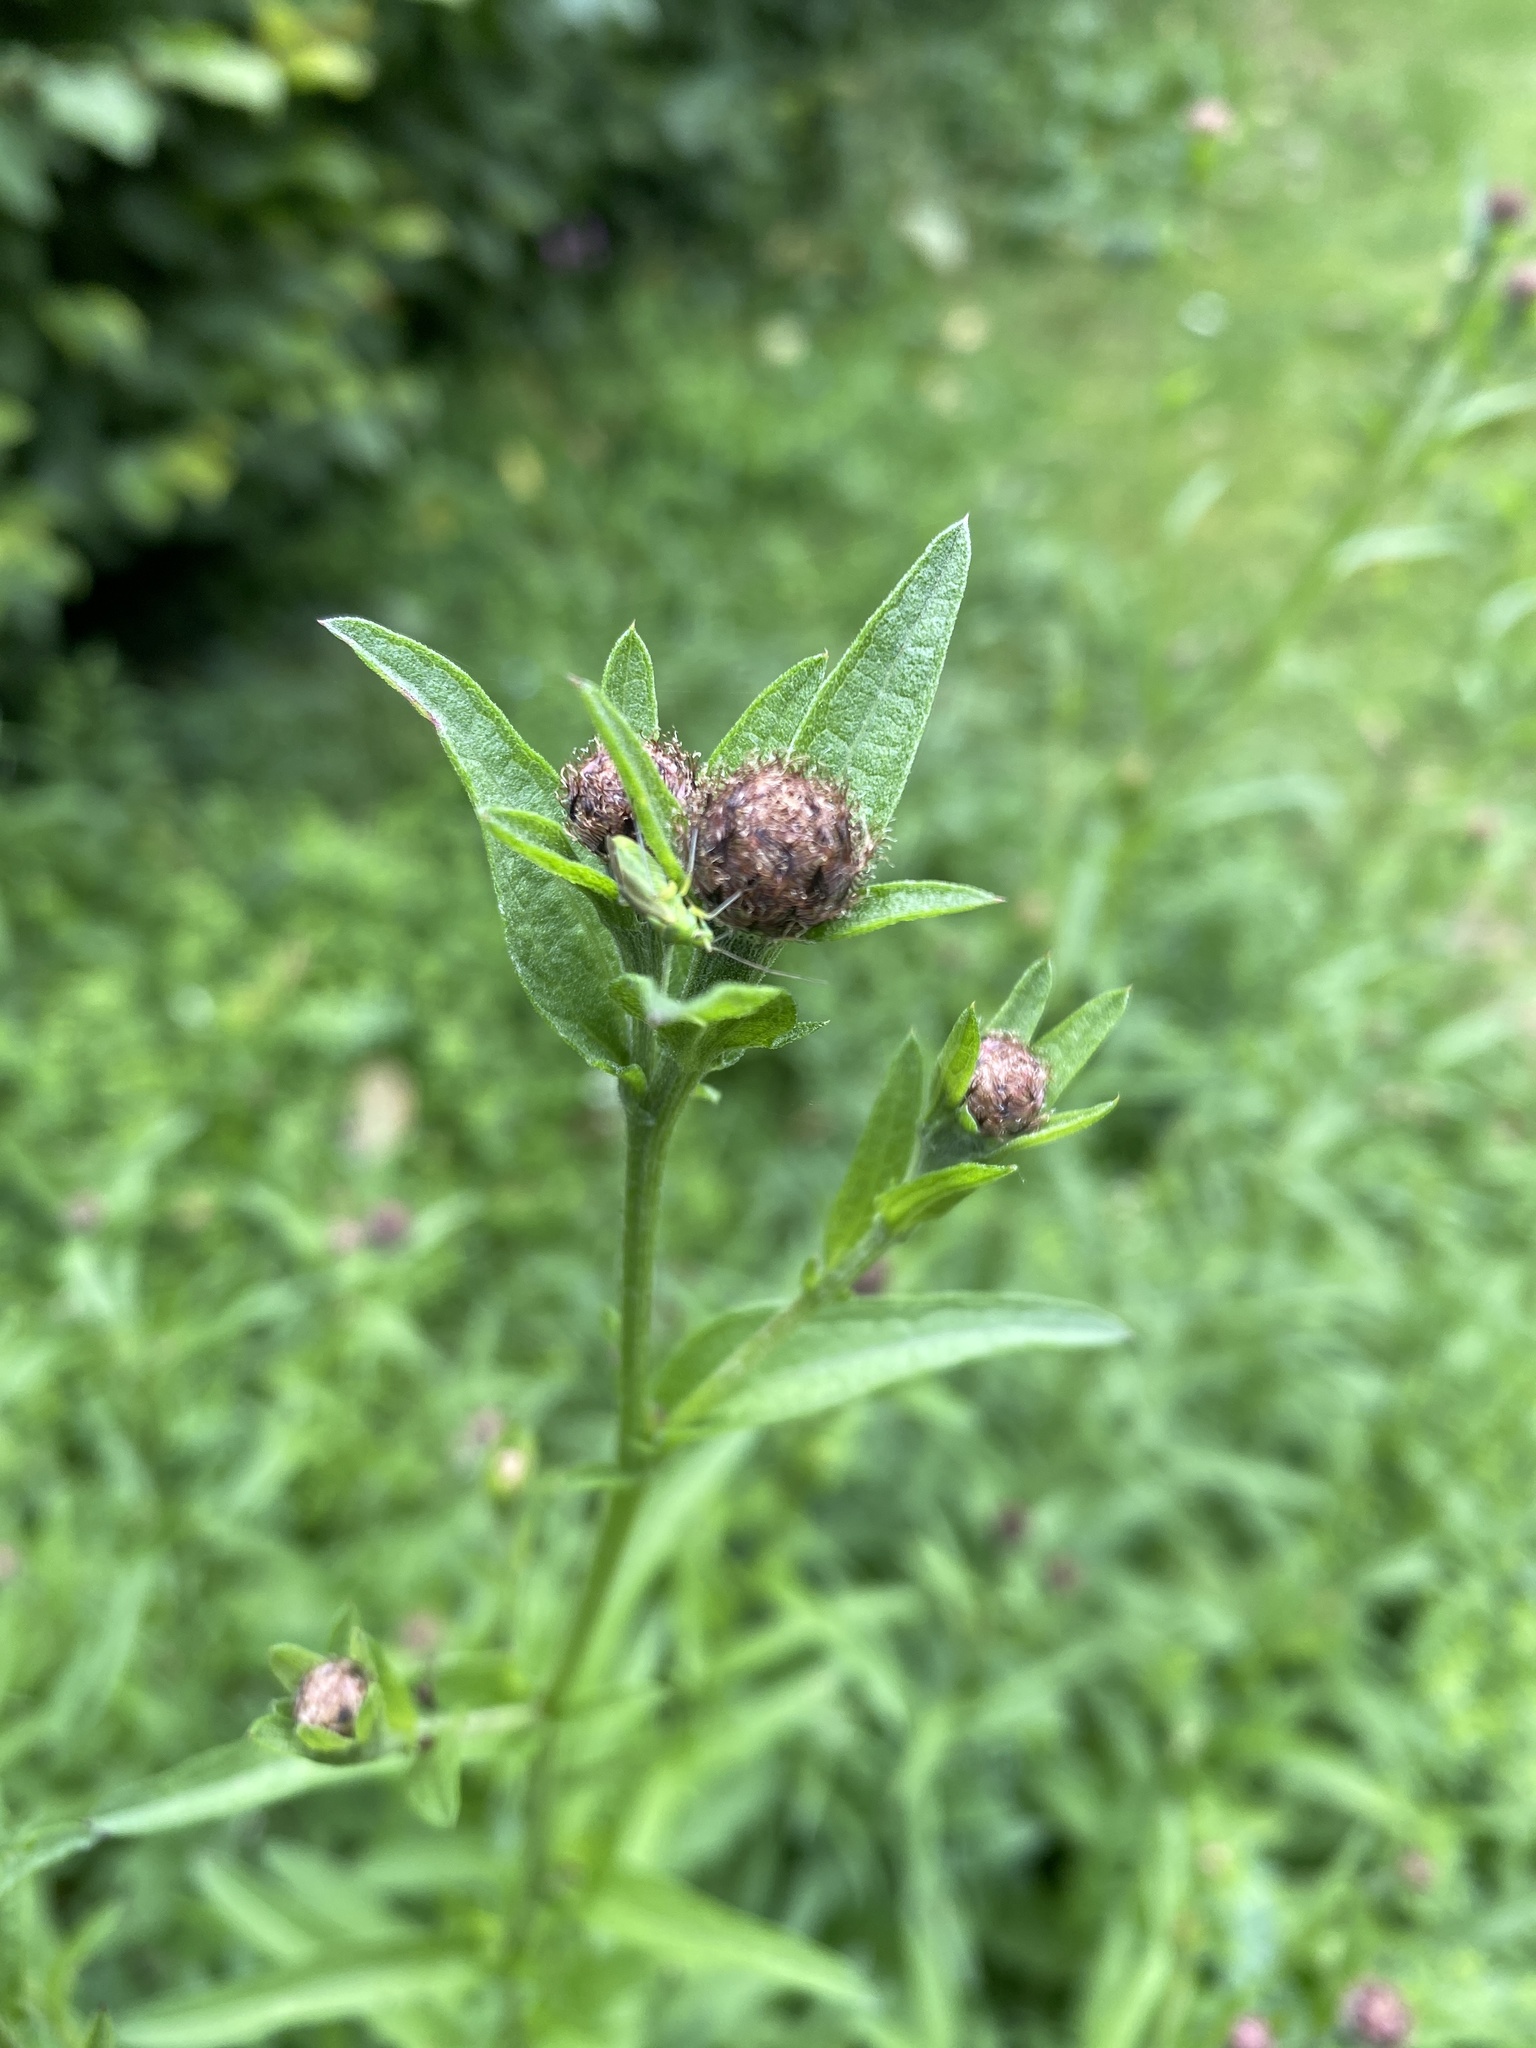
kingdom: Plantae
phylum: Tracheophyta
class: Magnoliopsida
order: Asterales
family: Asteraceae
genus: Centaurea
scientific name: Centaurea nigra
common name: Lesser knapweed
